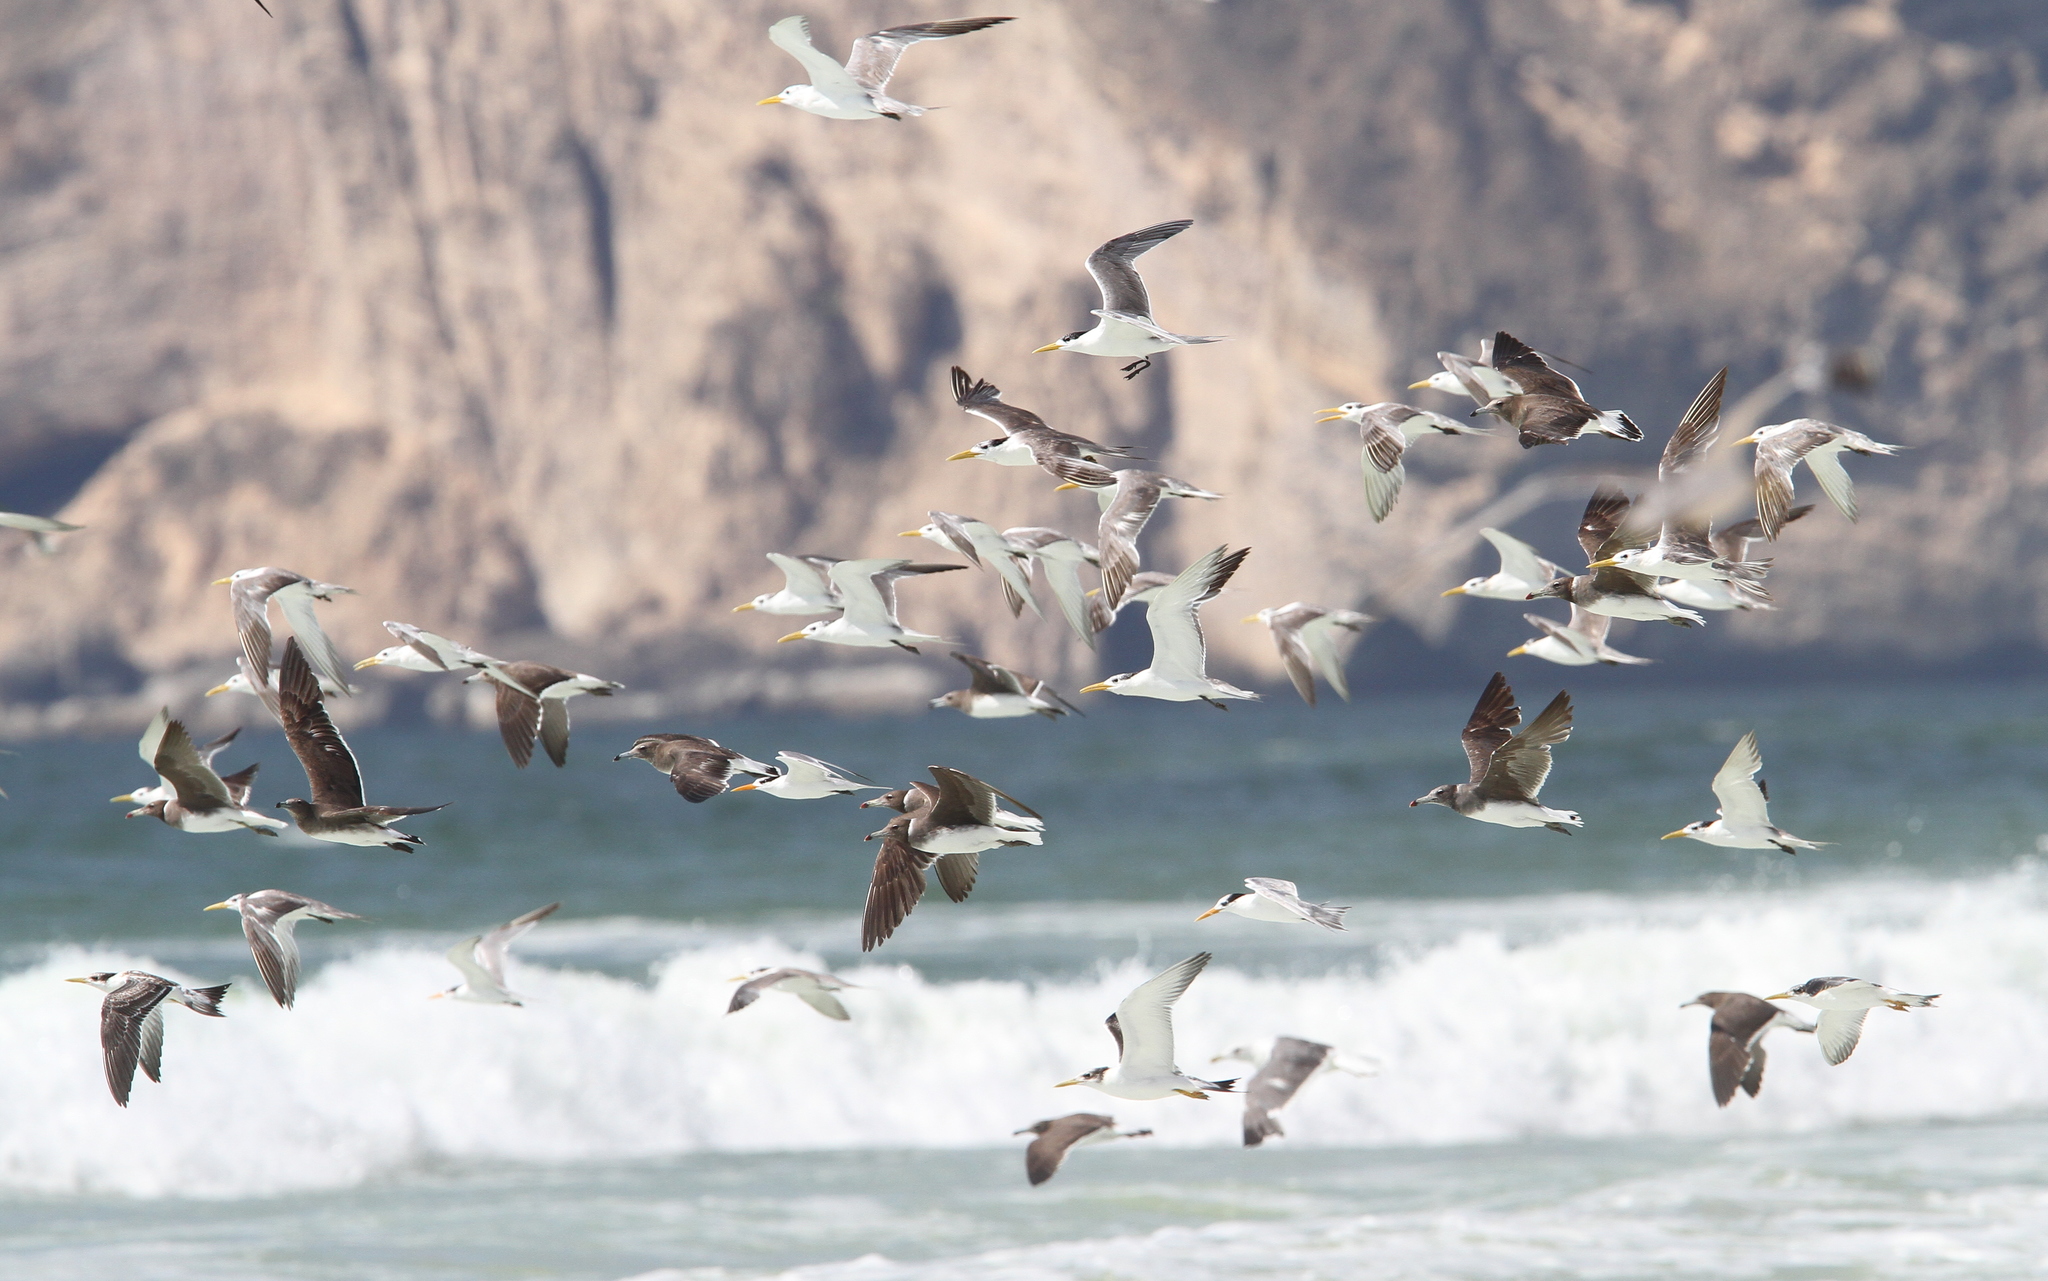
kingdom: Animalia
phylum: Chordata
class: Aves
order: Charadriiformes
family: Laridae
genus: Thalasseus
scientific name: Thalasseus bergii
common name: Greater crested tern
